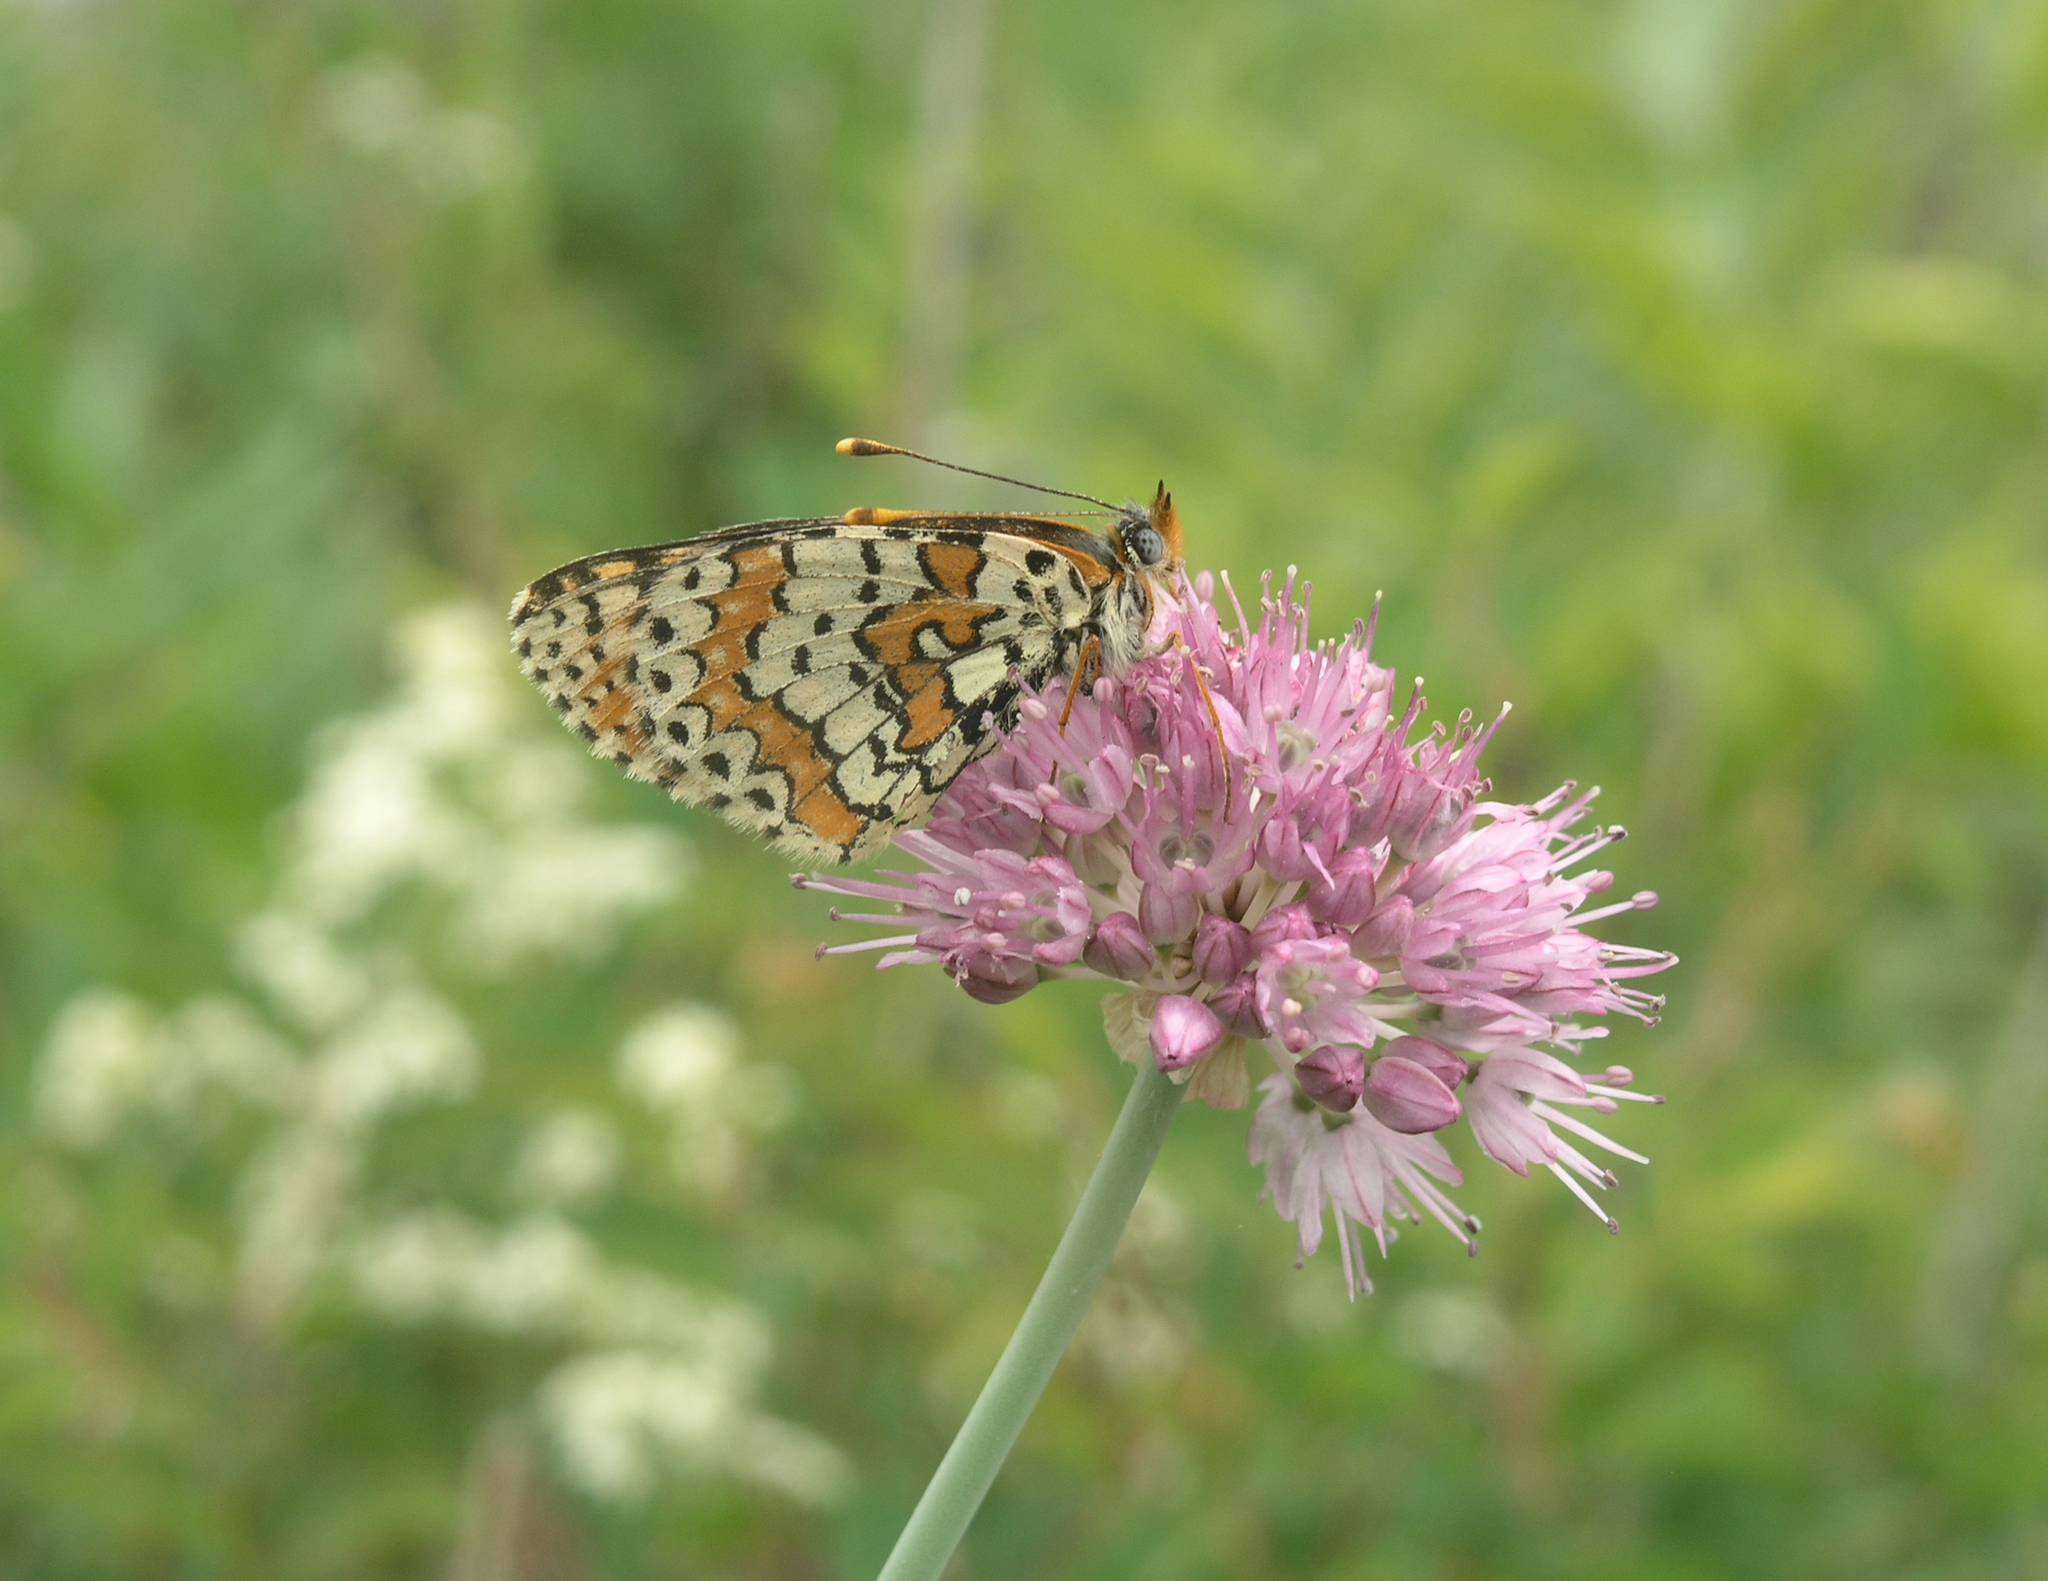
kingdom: Animalia
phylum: Arthropoda
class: Insecta
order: Lepidoptera
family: Nymphalidae
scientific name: Nymphalidae
